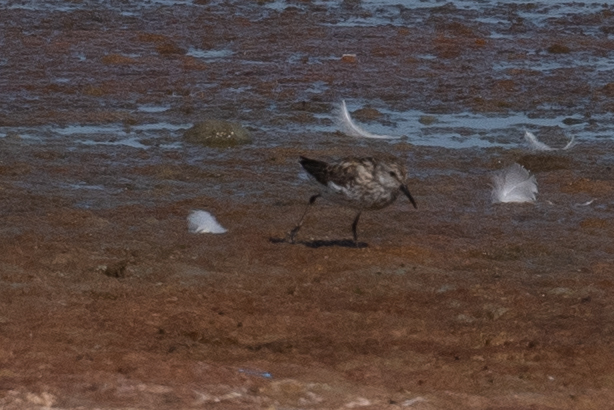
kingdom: Animalia
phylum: Chordata
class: Aves
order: Charadriiformes
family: Scolopacidae
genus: Calidris
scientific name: Calidris mauri
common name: Western sandpiper
